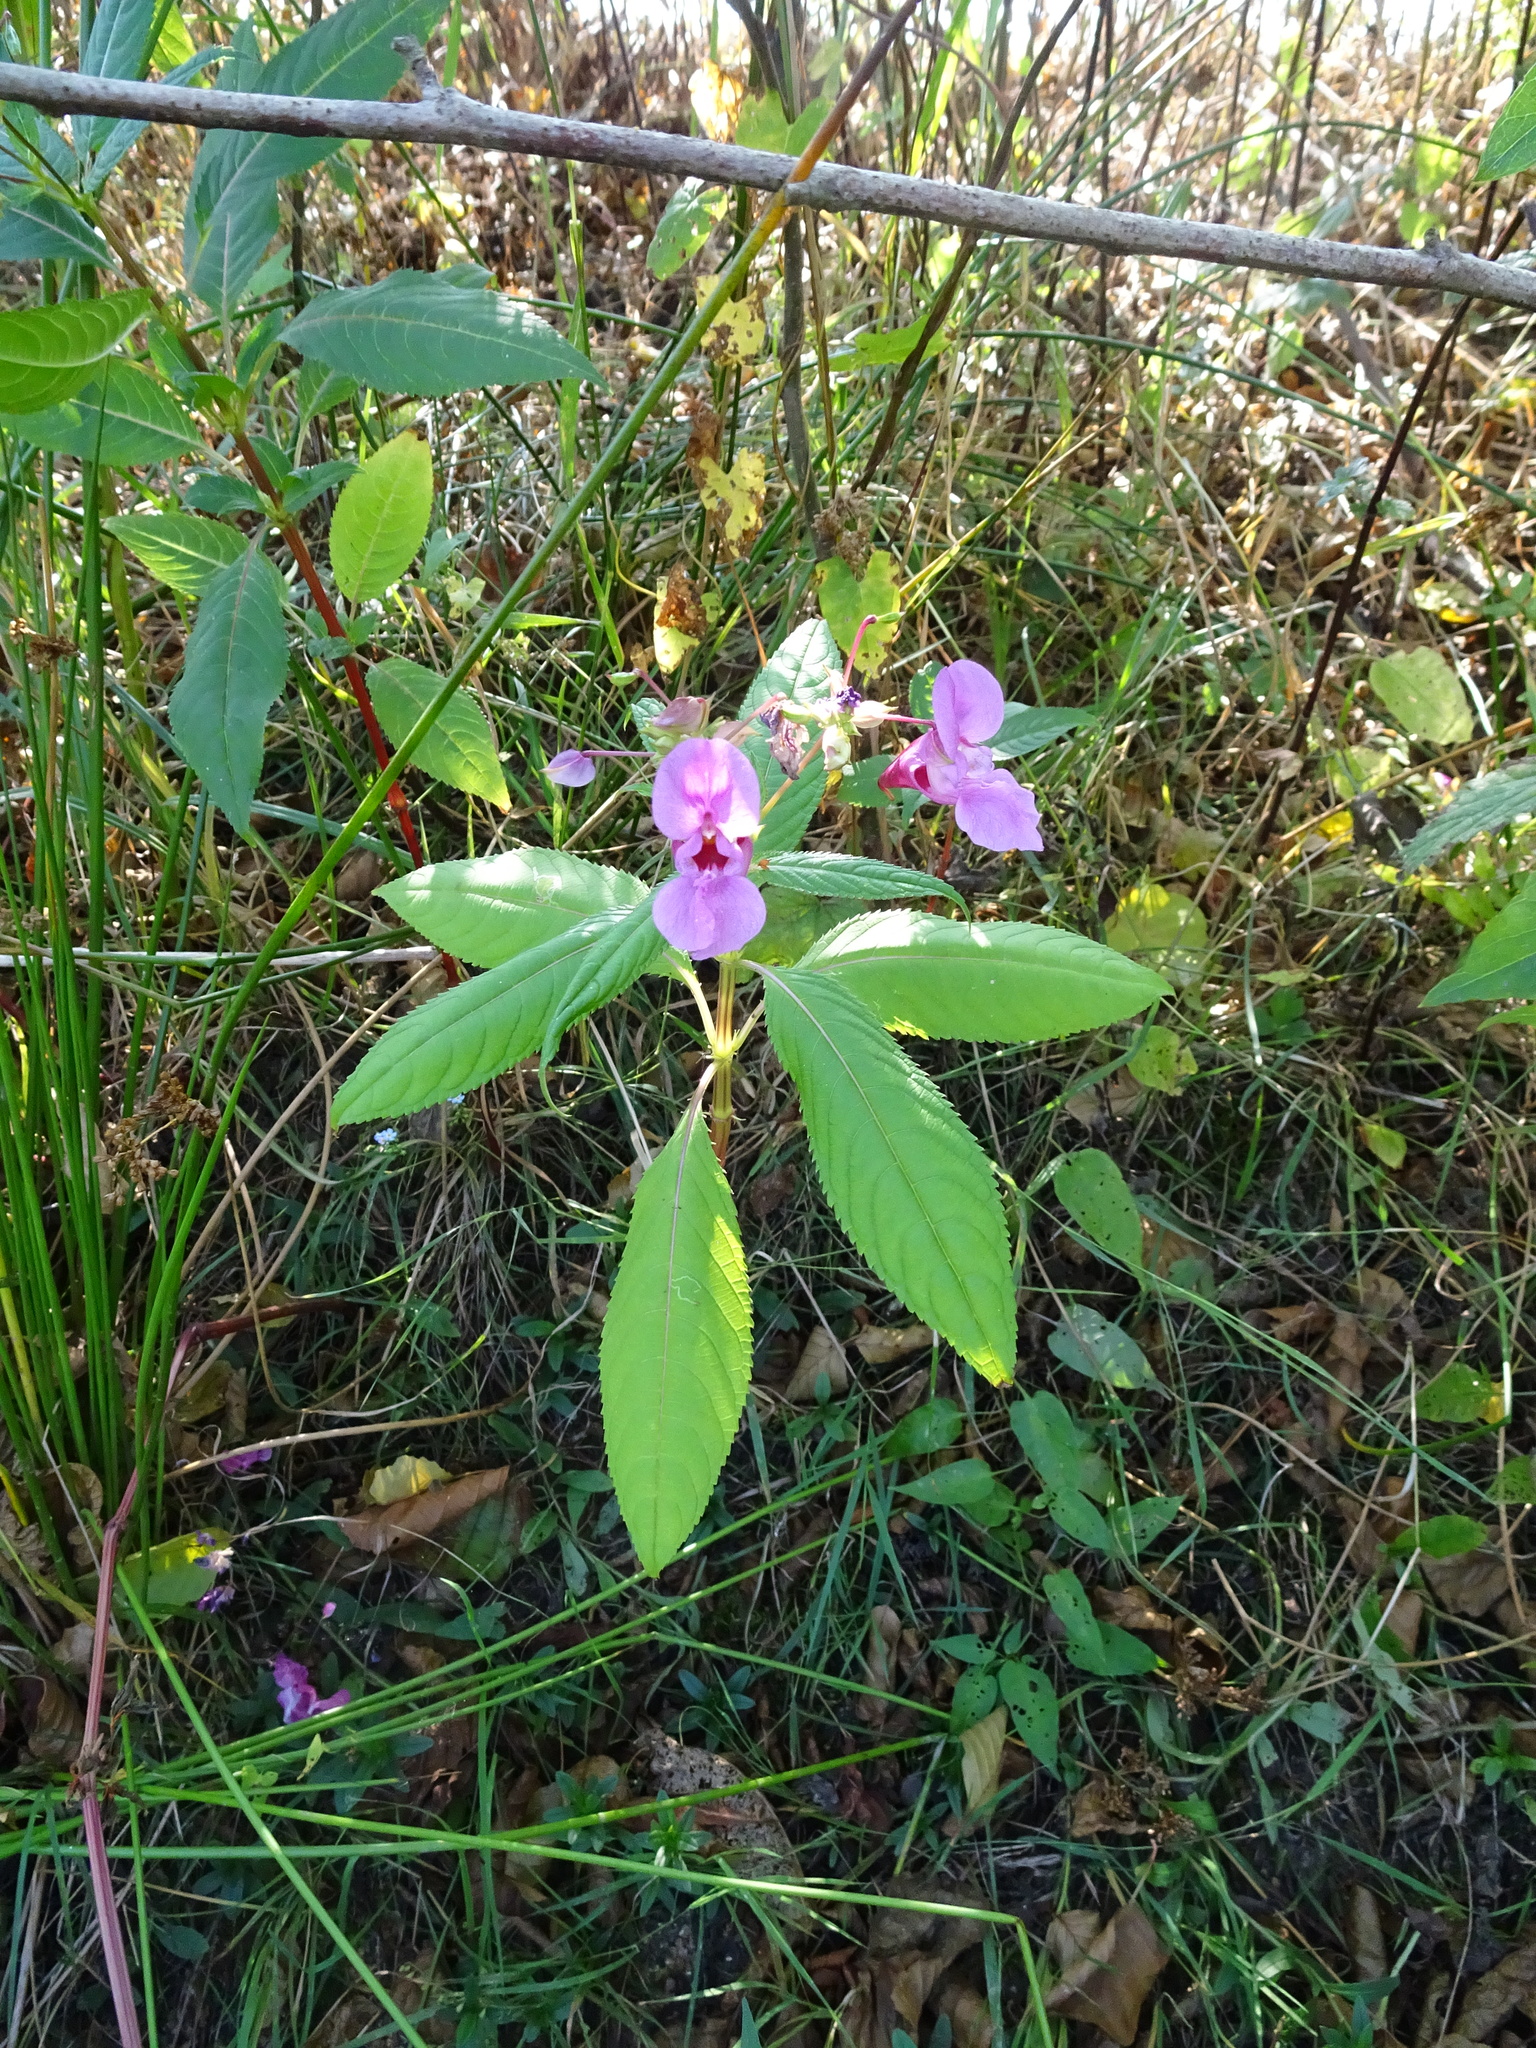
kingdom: Plantae
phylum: Tracheophyta
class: Magnoliopsida
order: Ericales
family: Balsaminaceae
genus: Impatiens
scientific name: Impatiens glandulifera
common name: Himalayan balsam
